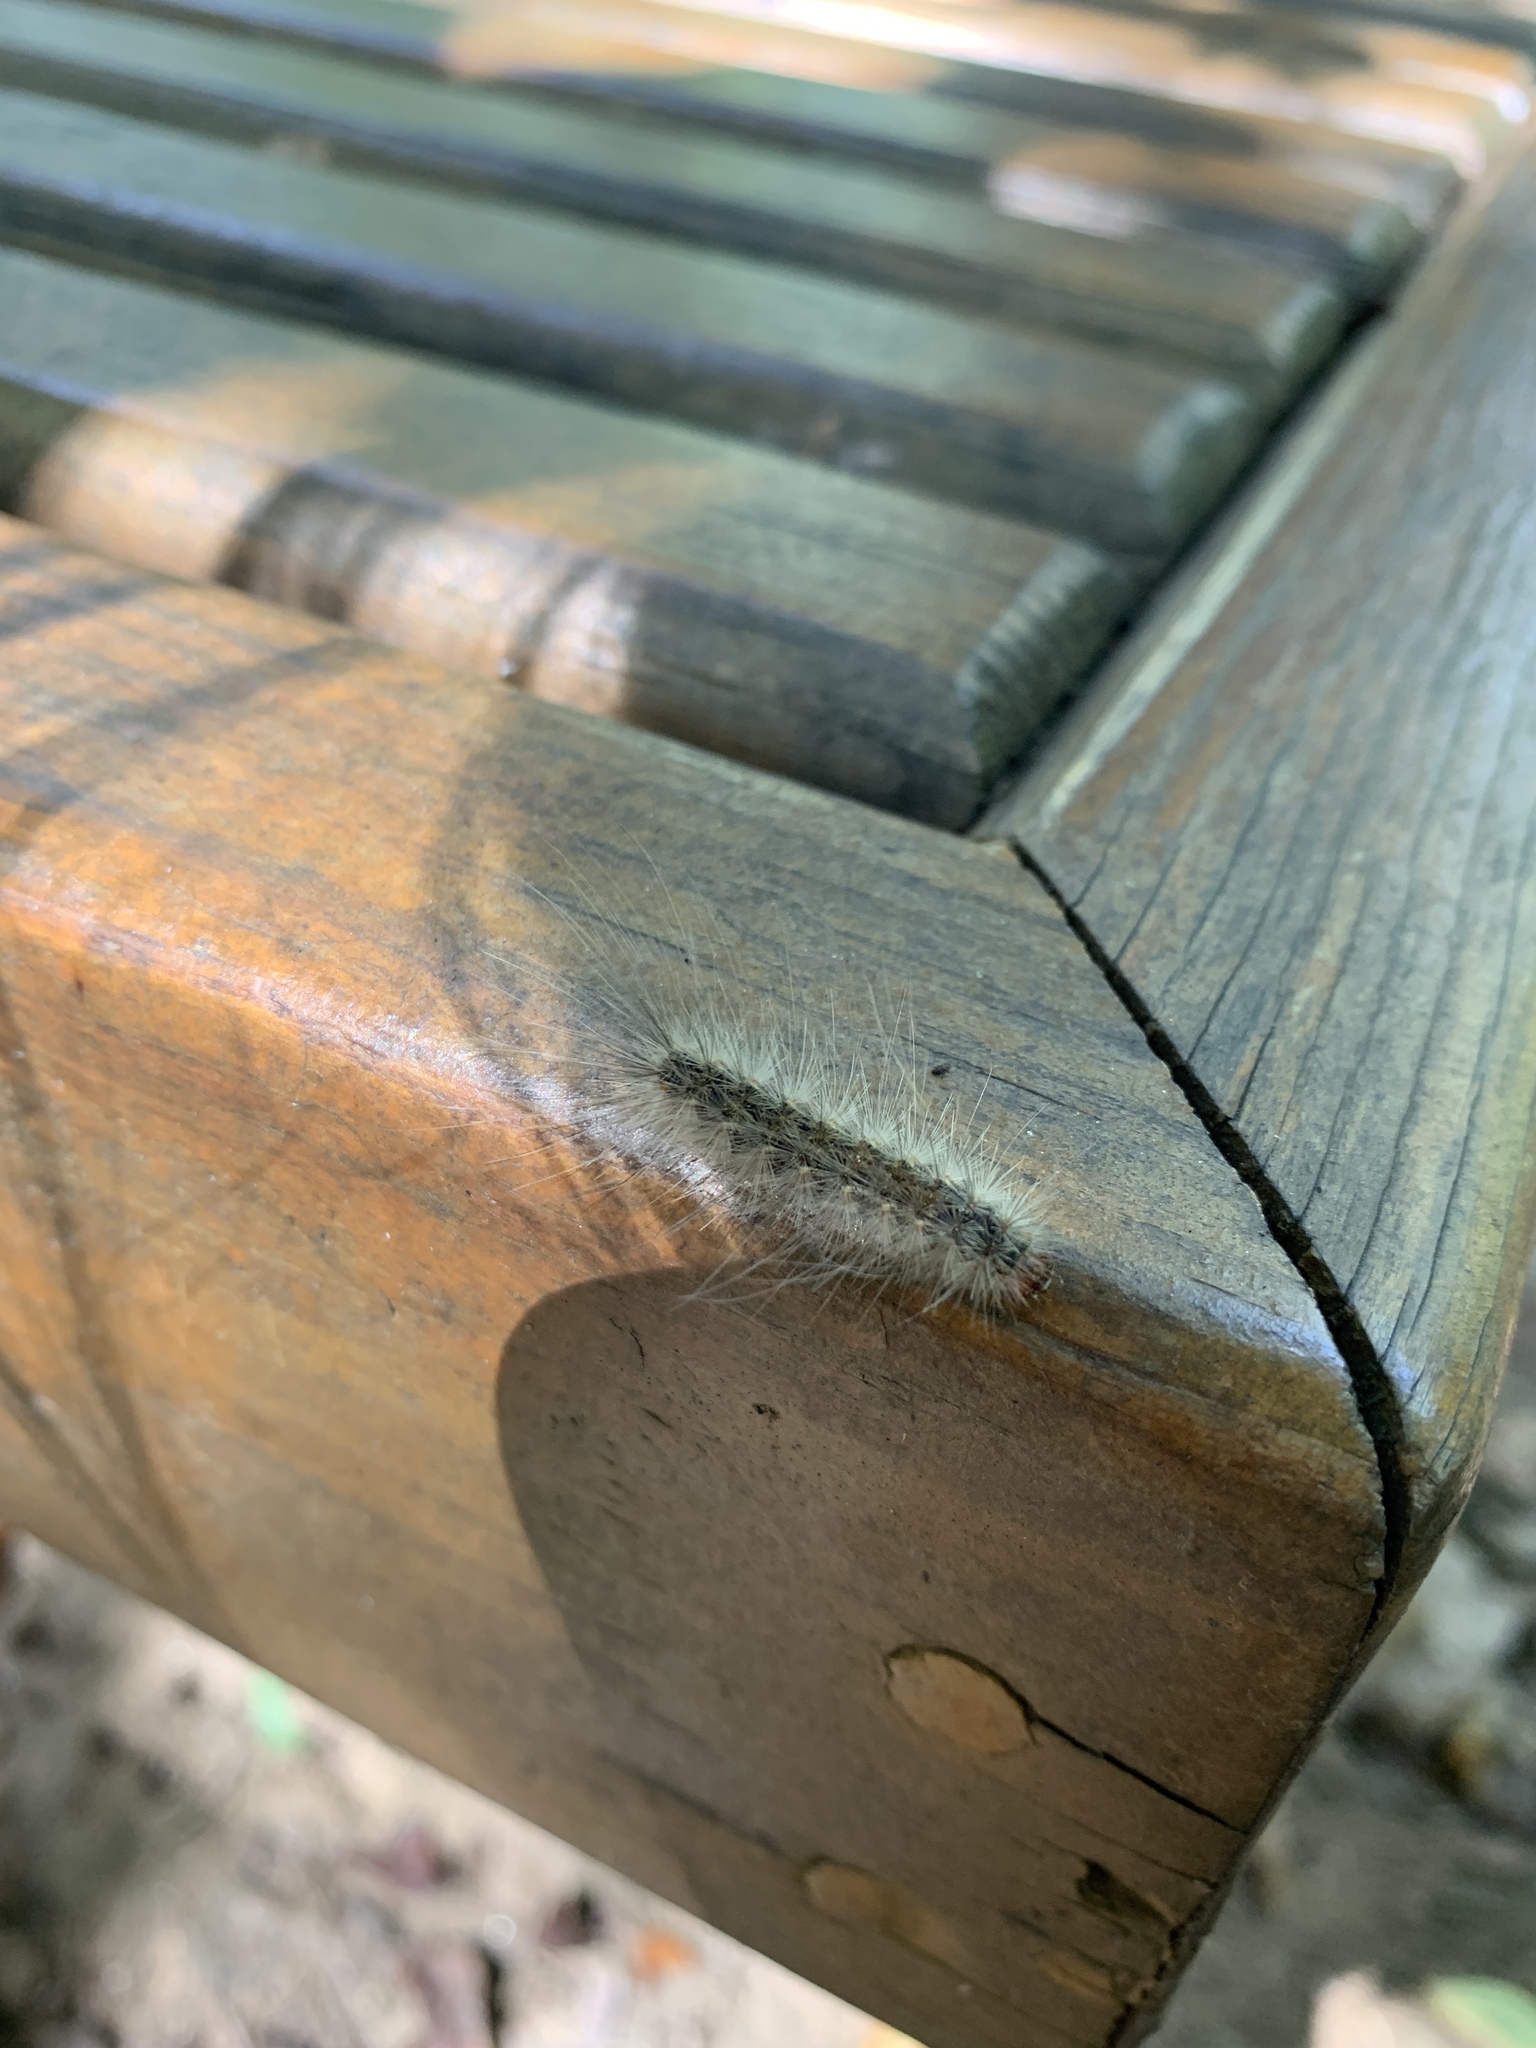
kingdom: Animalia
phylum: Arthropoda
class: Insecta
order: Lepidoptera
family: Erebidae
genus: Hyphantria
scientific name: Hyphantria cunea
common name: American white moth
